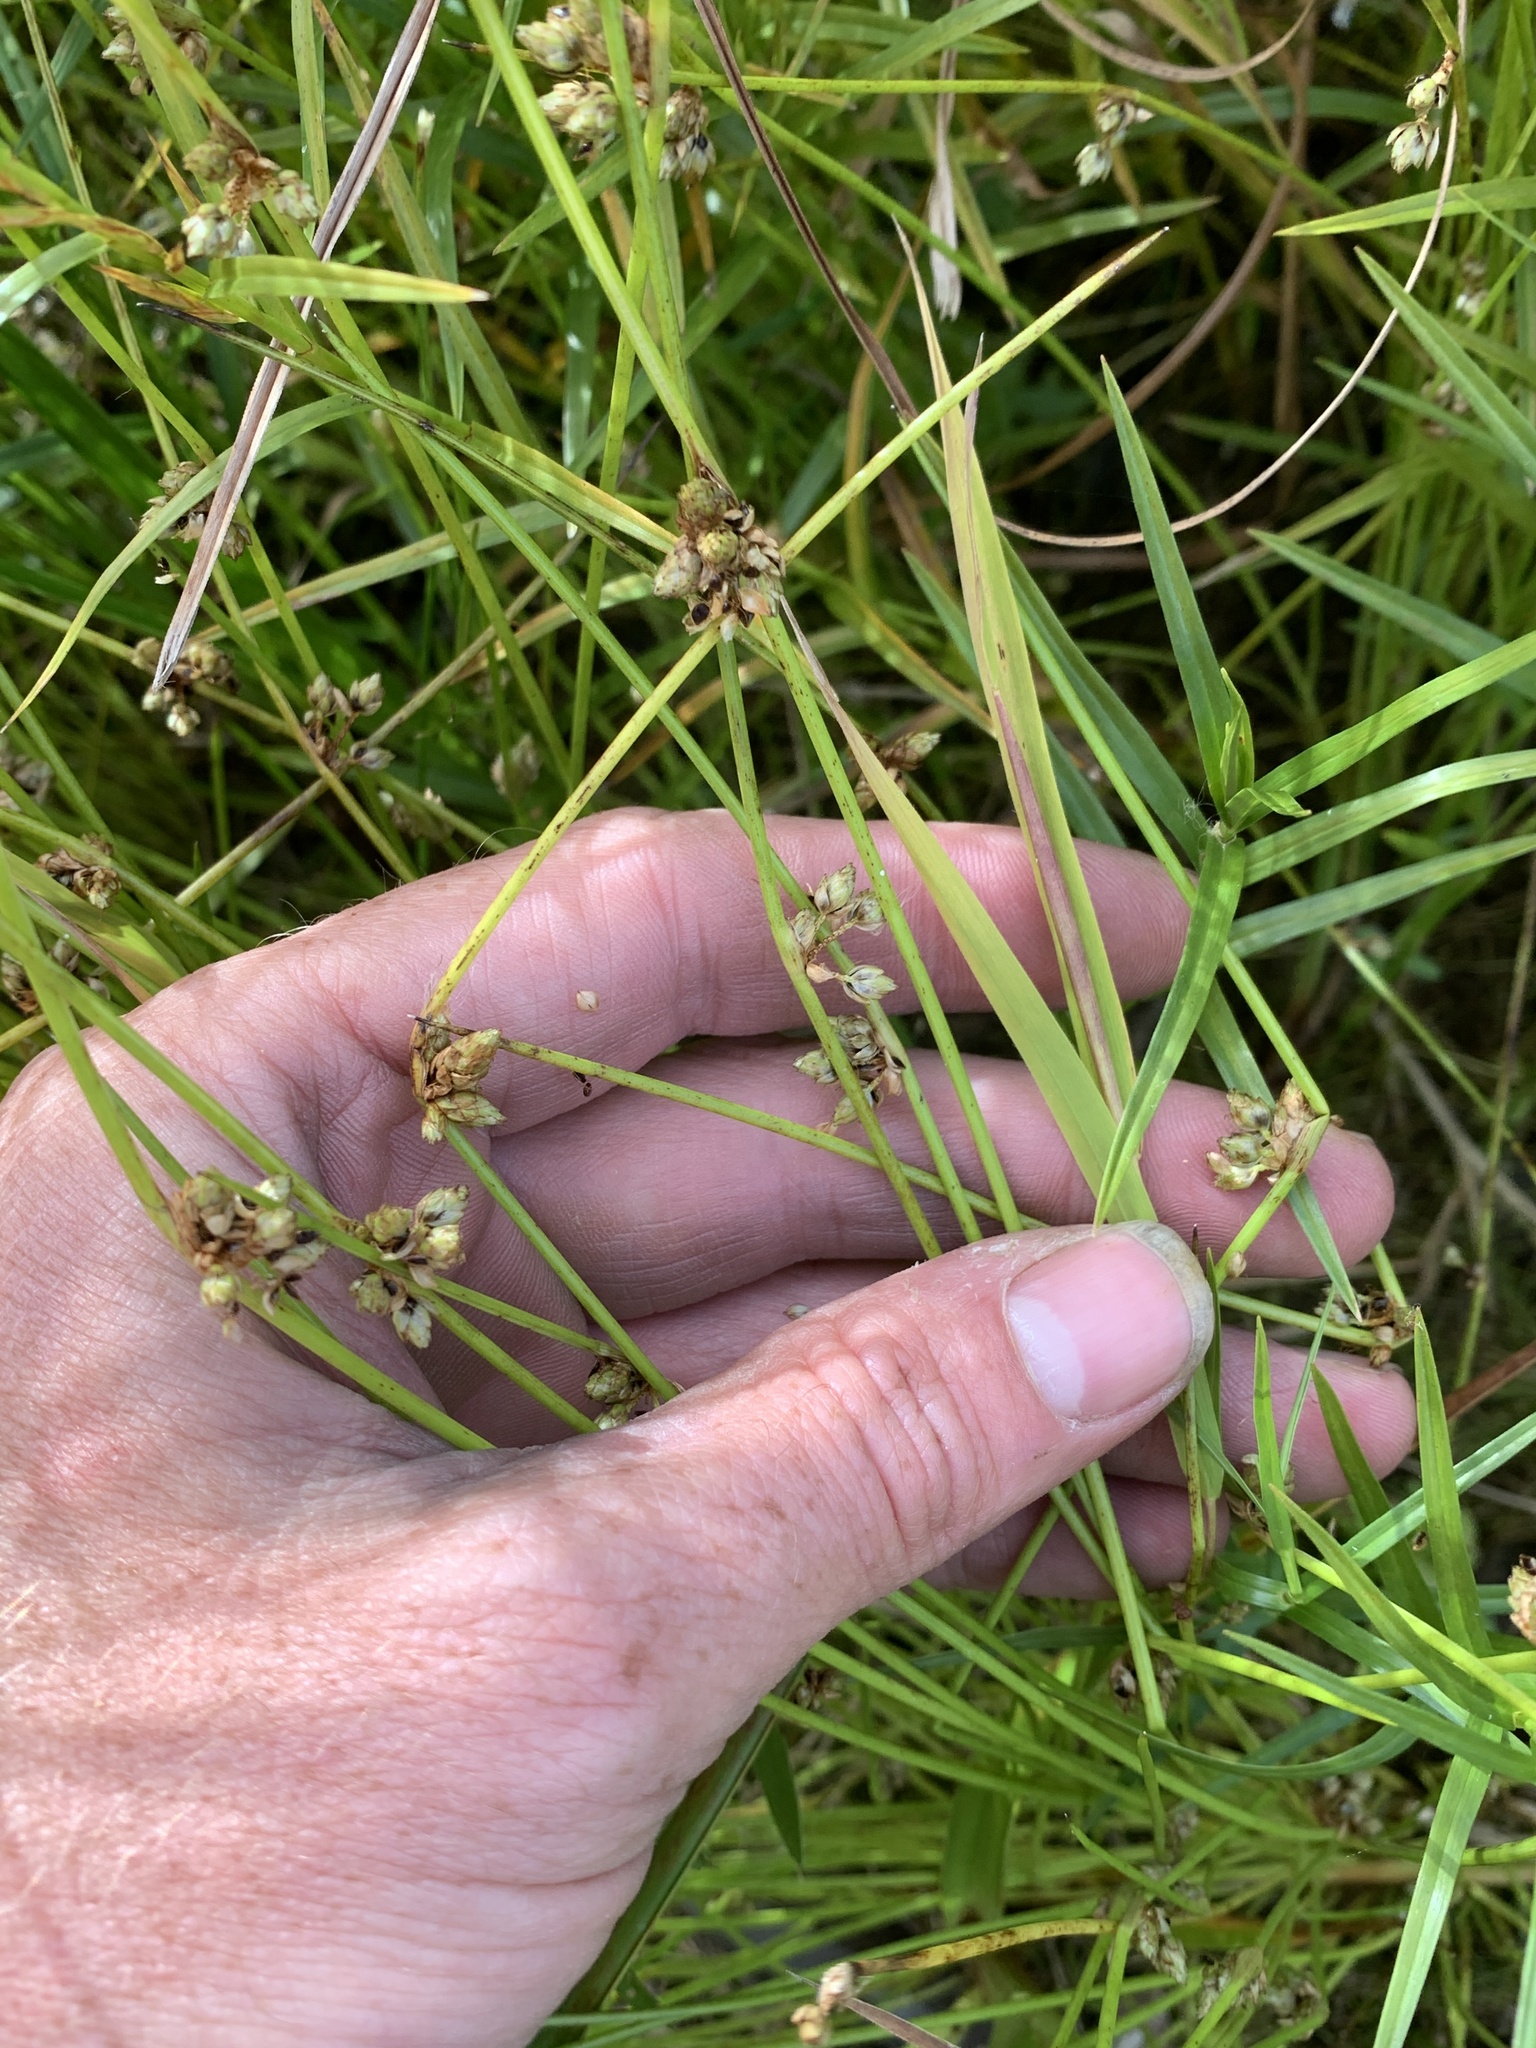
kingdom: Plantae
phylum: Tracheophyta
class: Liliopsida
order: Poales
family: Cyperaceae
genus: Schoenoplectiella
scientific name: Schoenoplectiella smithii
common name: Smith's bulrush
